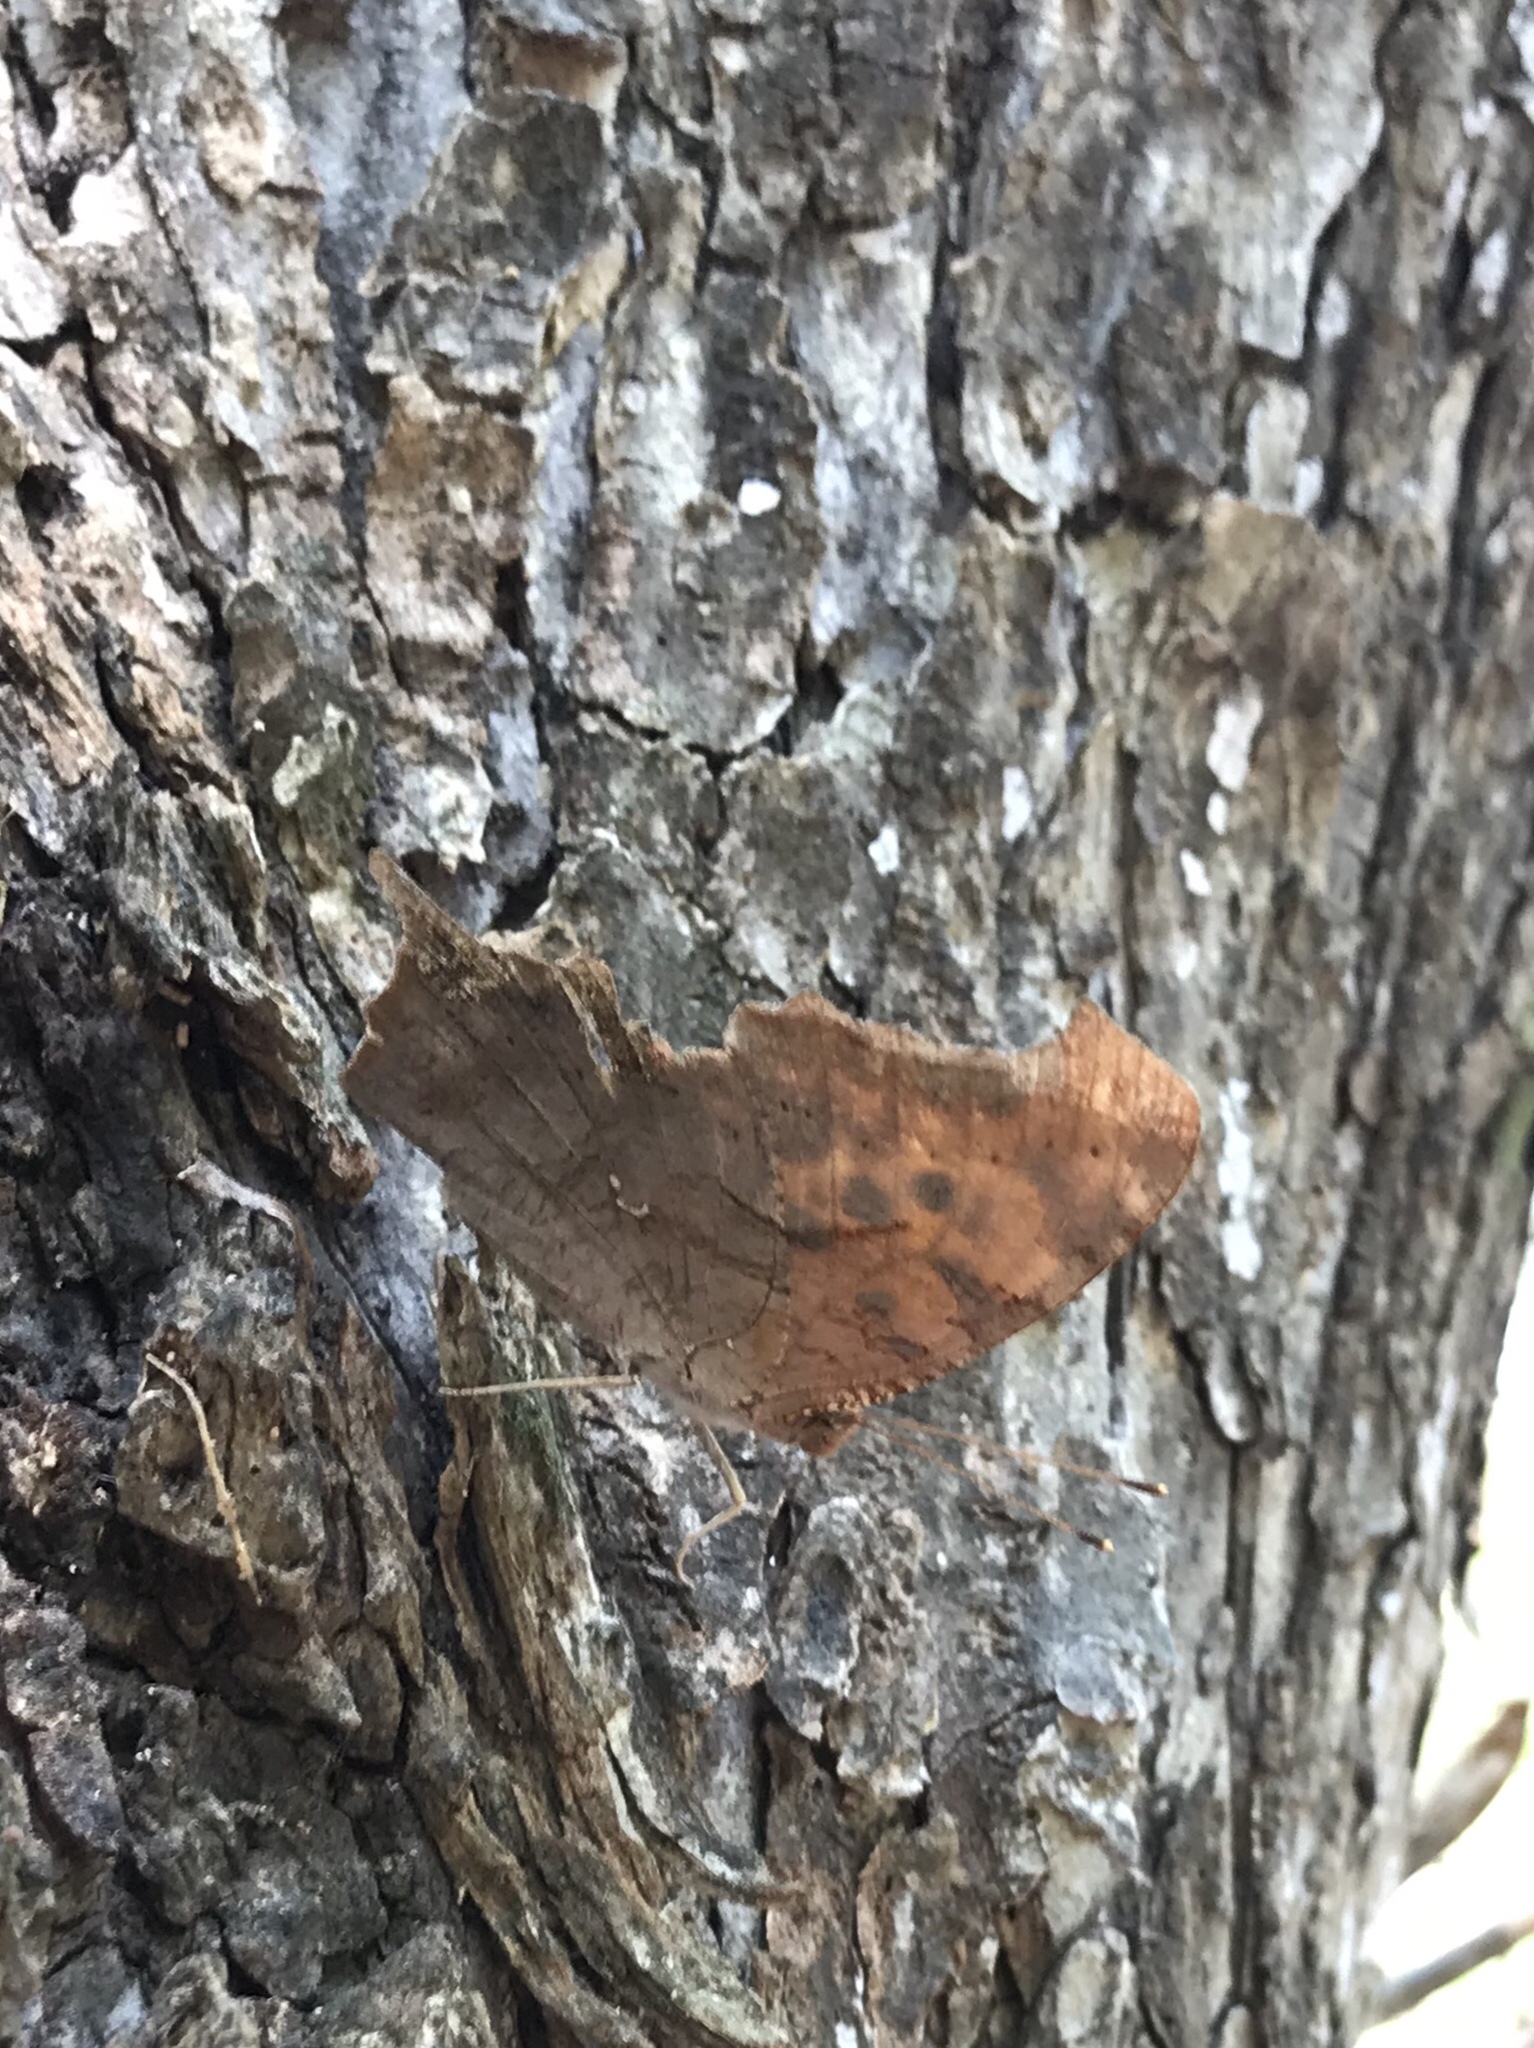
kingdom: Animalia
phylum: Arthropoda
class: Insecta
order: Lepidoptera
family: Nymphalidae
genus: Polygonia
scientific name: Polygonia interrogationis
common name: Question mark
